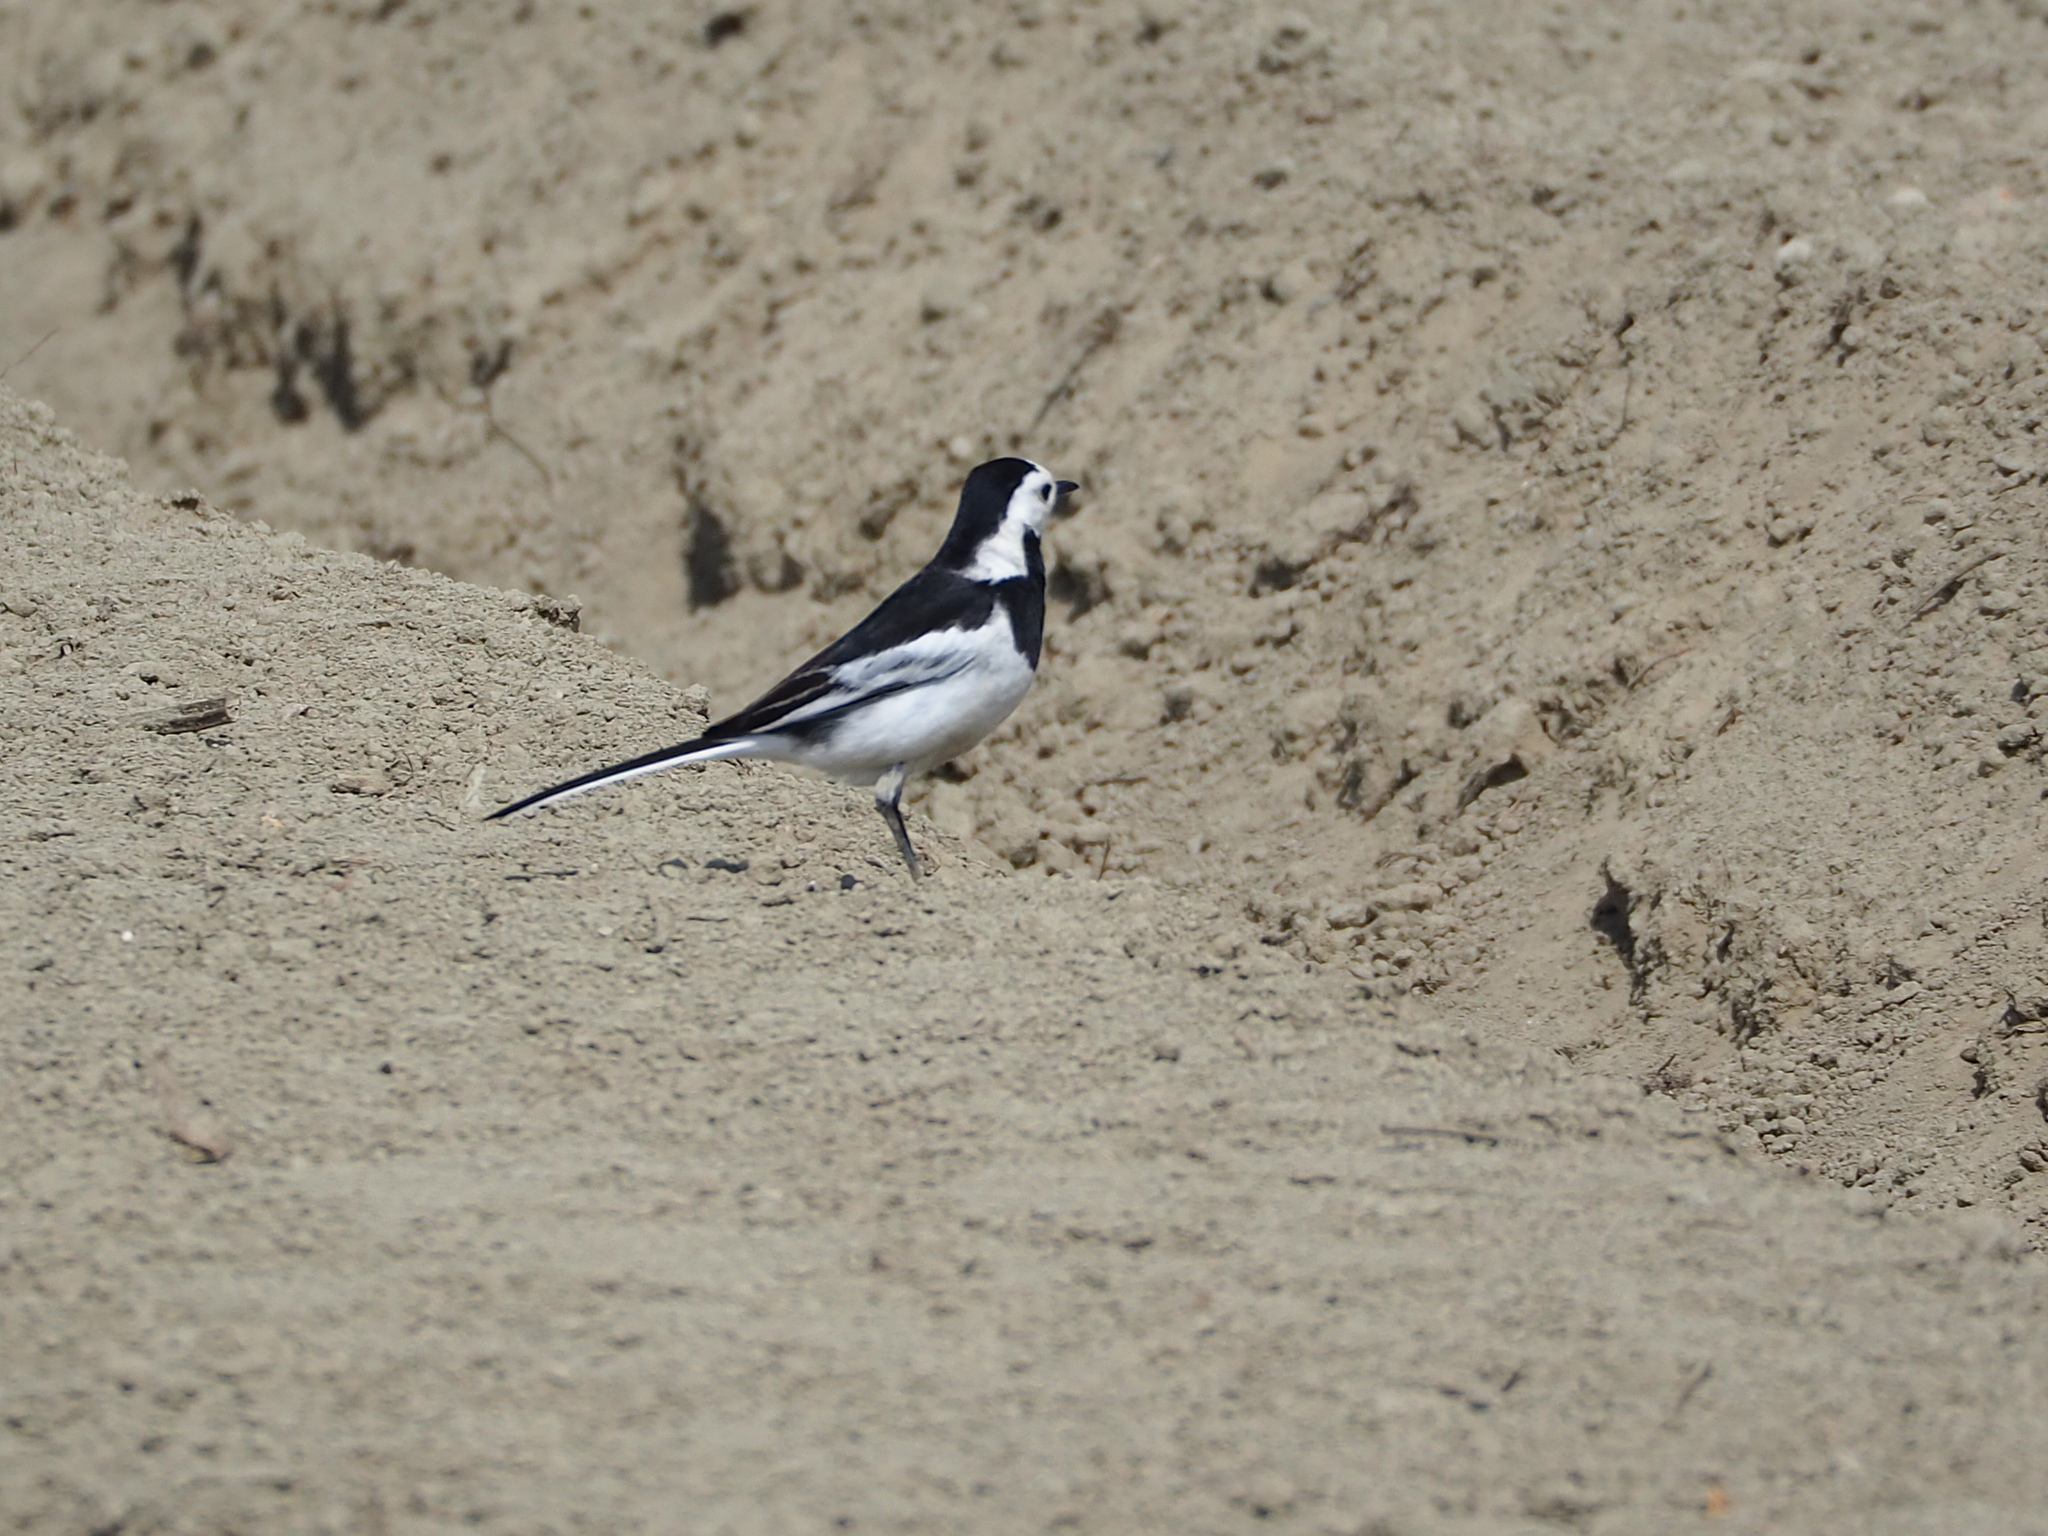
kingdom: Animalia
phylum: Chordata
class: Aves
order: Passeriformes
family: Motacillidae
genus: Motacilla
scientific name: Motacilla alba
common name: White wagtail
